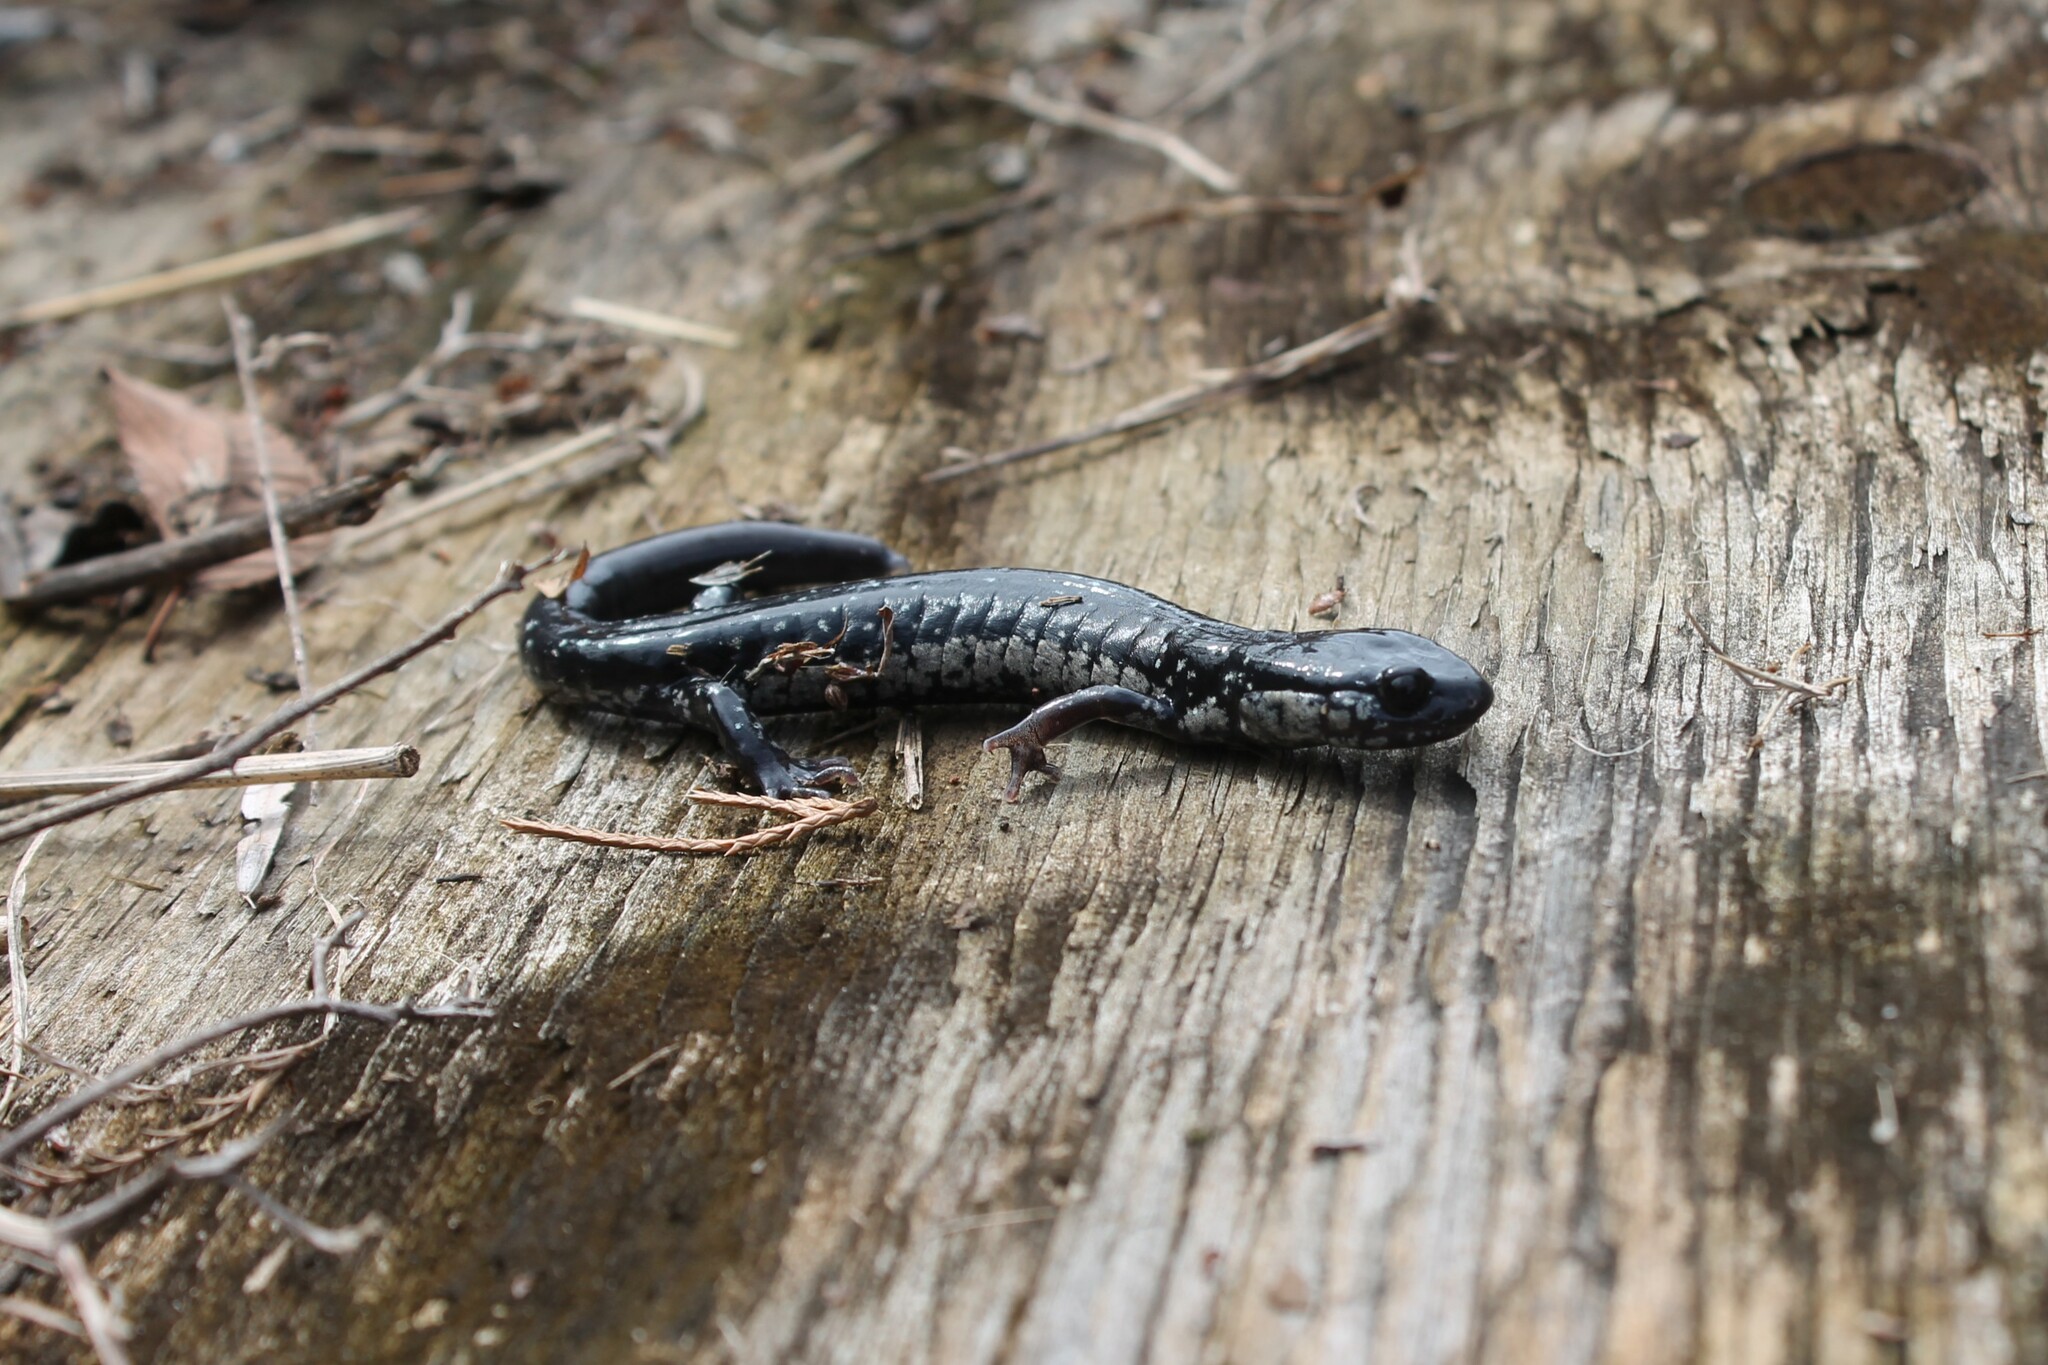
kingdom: Animalia
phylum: Chordata
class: Amphibia
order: Caudata
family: Plethodontidae
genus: Plethodon
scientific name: Plethodon glutinosus
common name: Northern slimy salamander
